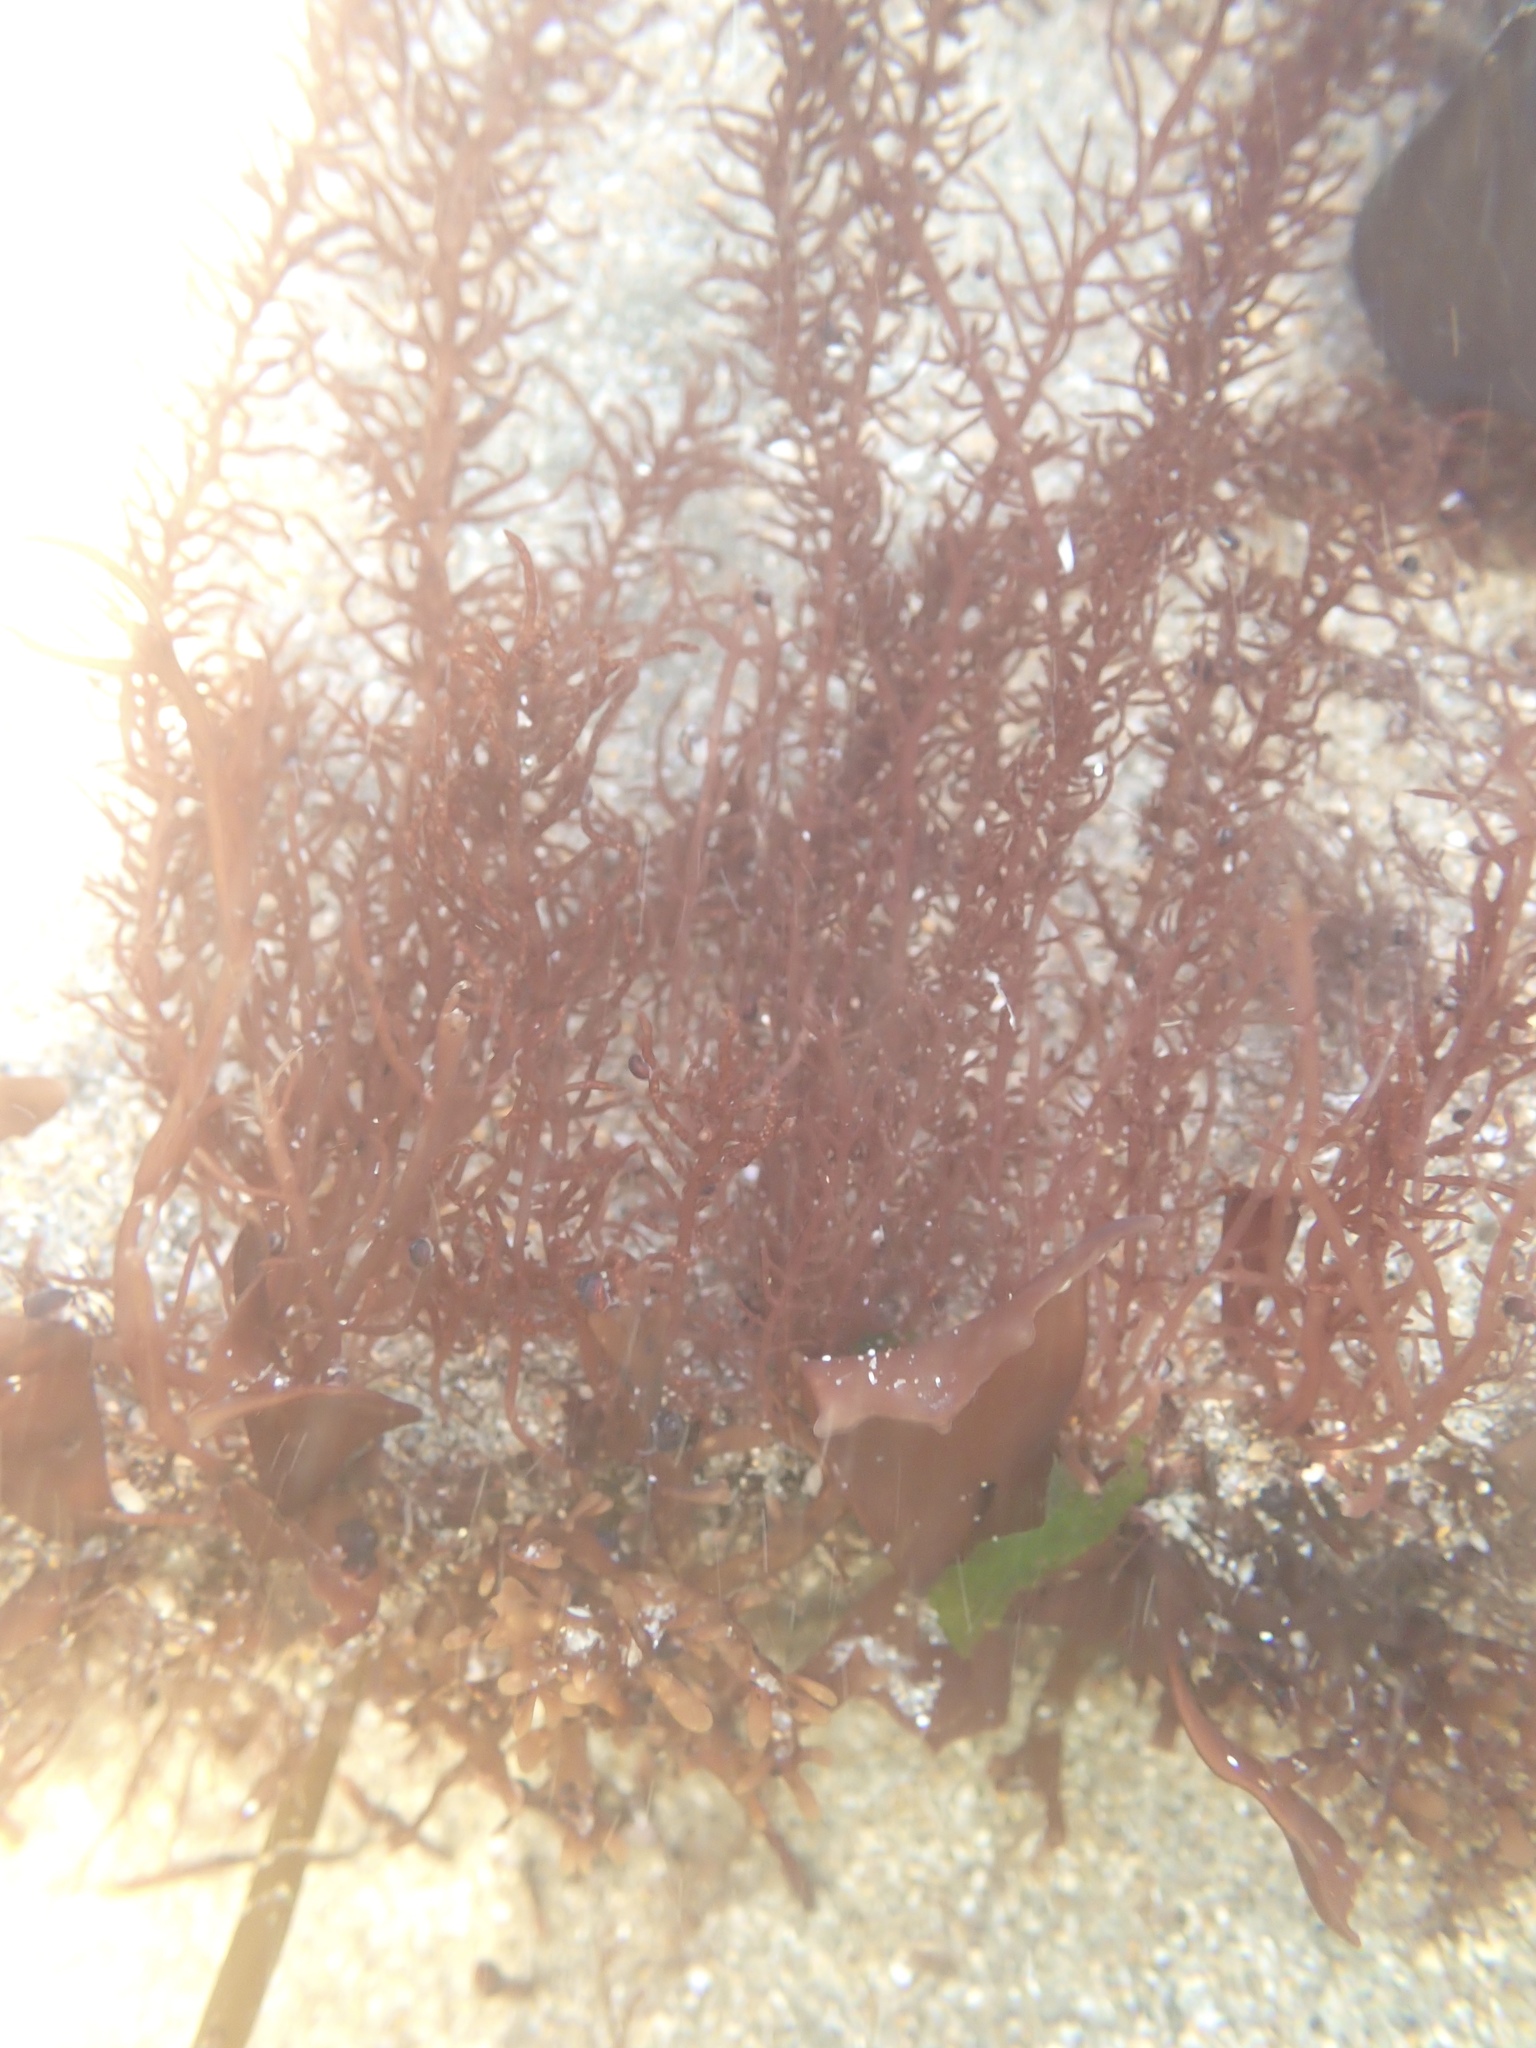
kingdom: Plantae
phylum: Rhodophyta
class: Florideophyceae
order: Gigartinales
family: Gloiosiphoniaceae
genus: Gloiosiphonia
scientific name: Gloiosiphonia verticillaris
